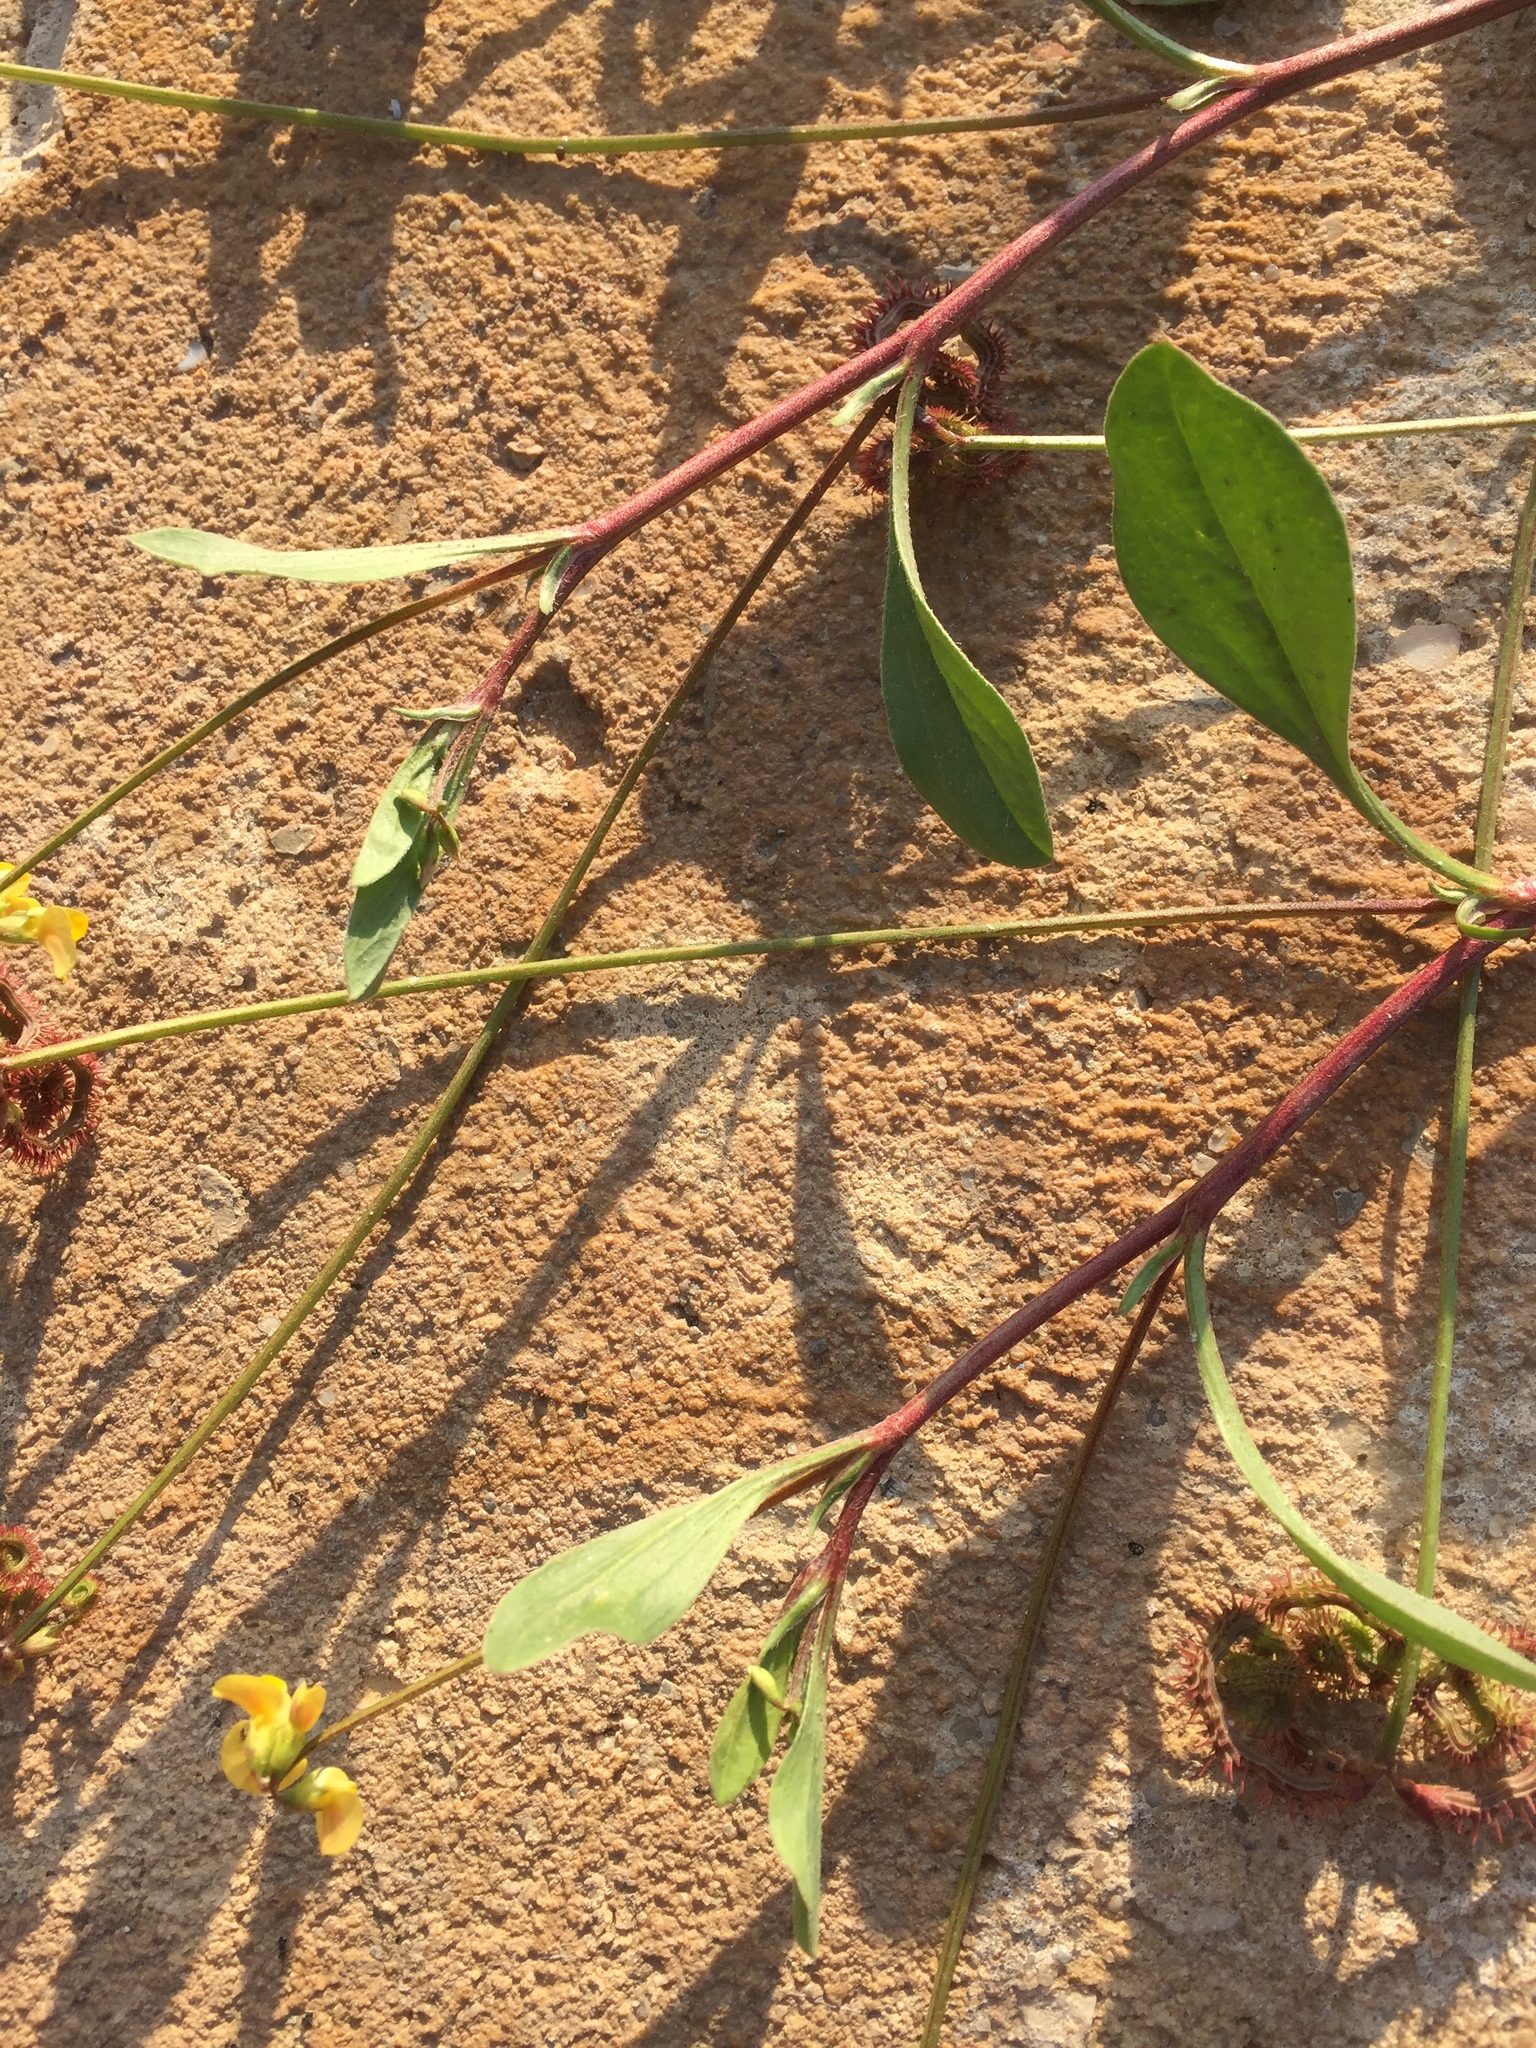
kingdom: Plantae
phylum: Tracheophyta
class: Magnoliopsida
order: Fabales
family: Fabaceae
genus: Scorpiurus
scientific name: Scorpiurus muricatus
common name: Caterpillar-plant
